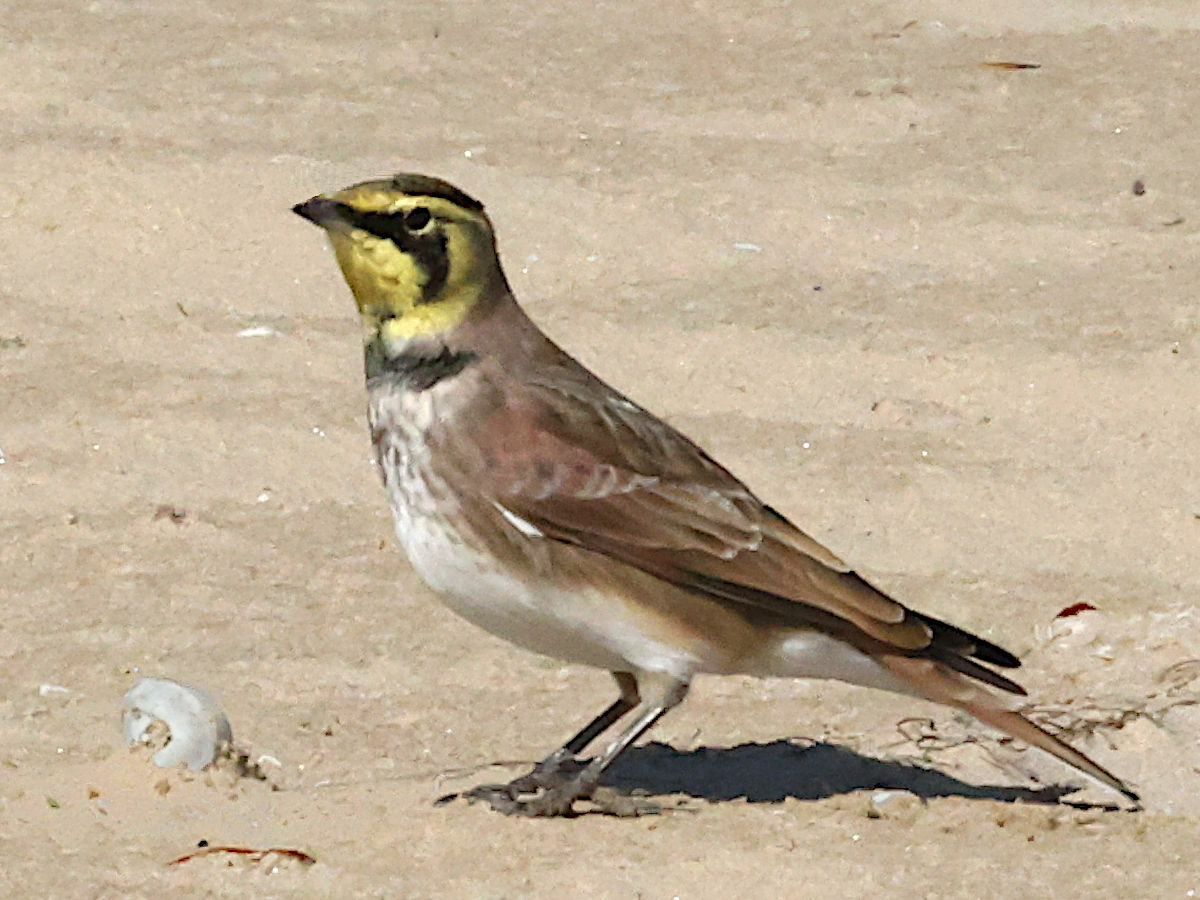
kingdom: Animalia
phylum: Chordata
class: Aves
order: Passeriformes
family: Alaudidae
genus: Eremophila
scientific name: Eremophila alpestris
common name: Horned lark
